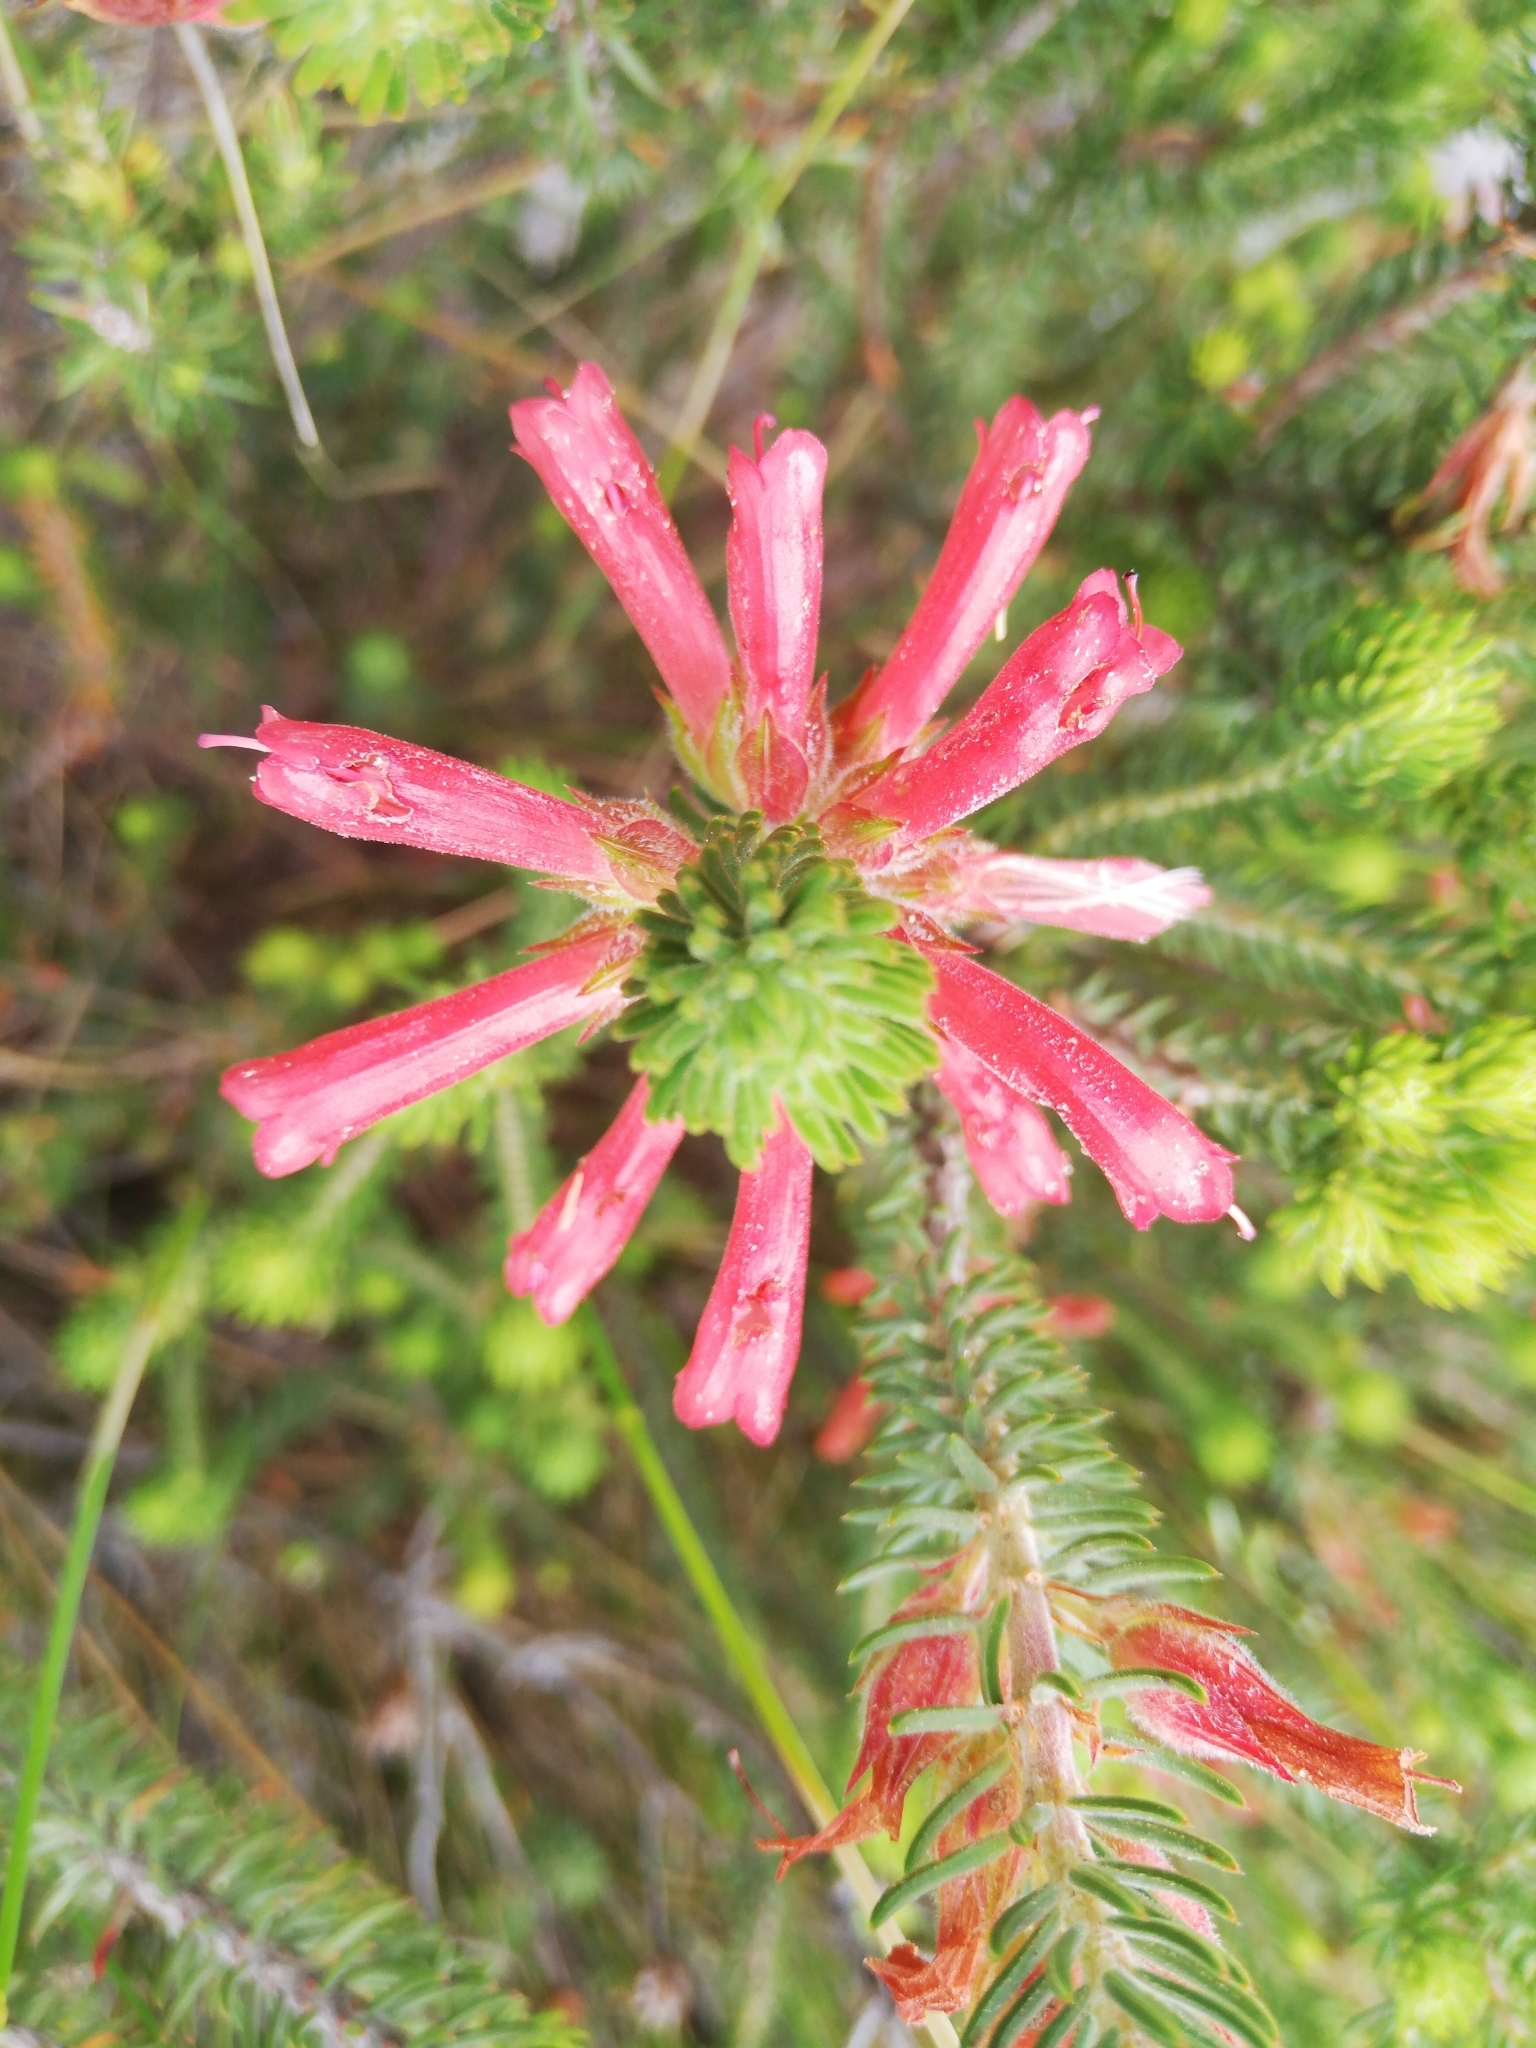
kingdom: Plantae
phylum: Tracheophyta
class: Magnoliopsida
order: Ericales
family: Ericaceae
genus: Erica
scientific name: Erica abietina
